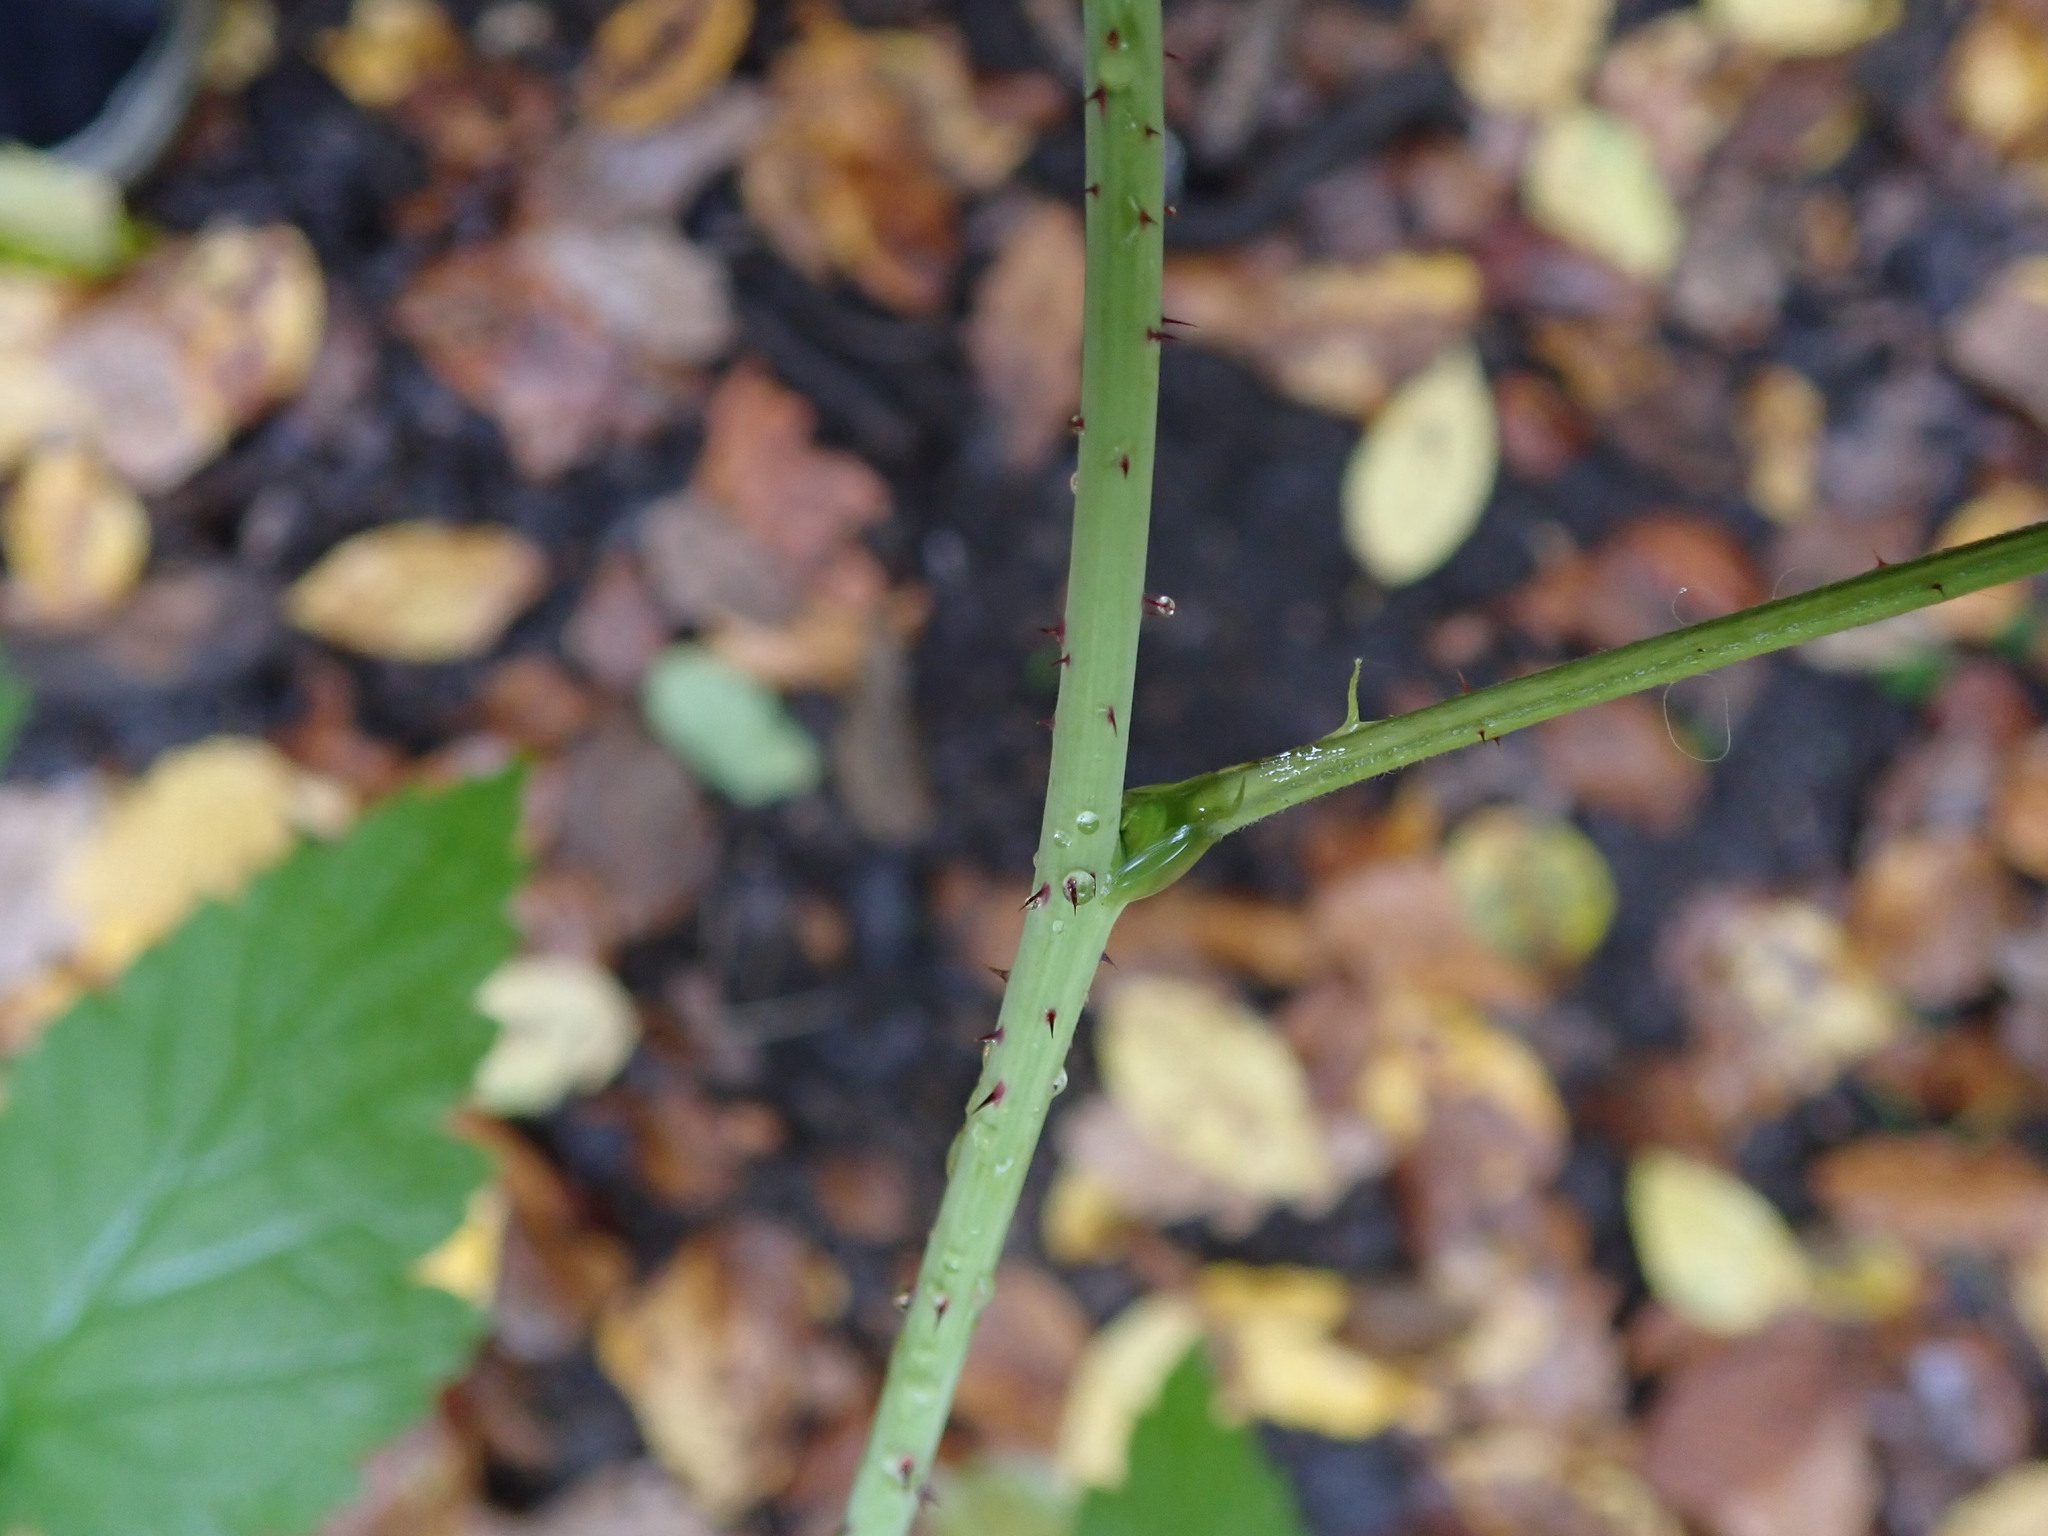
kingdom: Plantae
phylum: Tracheophyta
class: Magnoliopsida
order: Rosales
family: Rosaceae
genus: Rubus
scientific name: Rubus idaeus
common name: Raspberry
